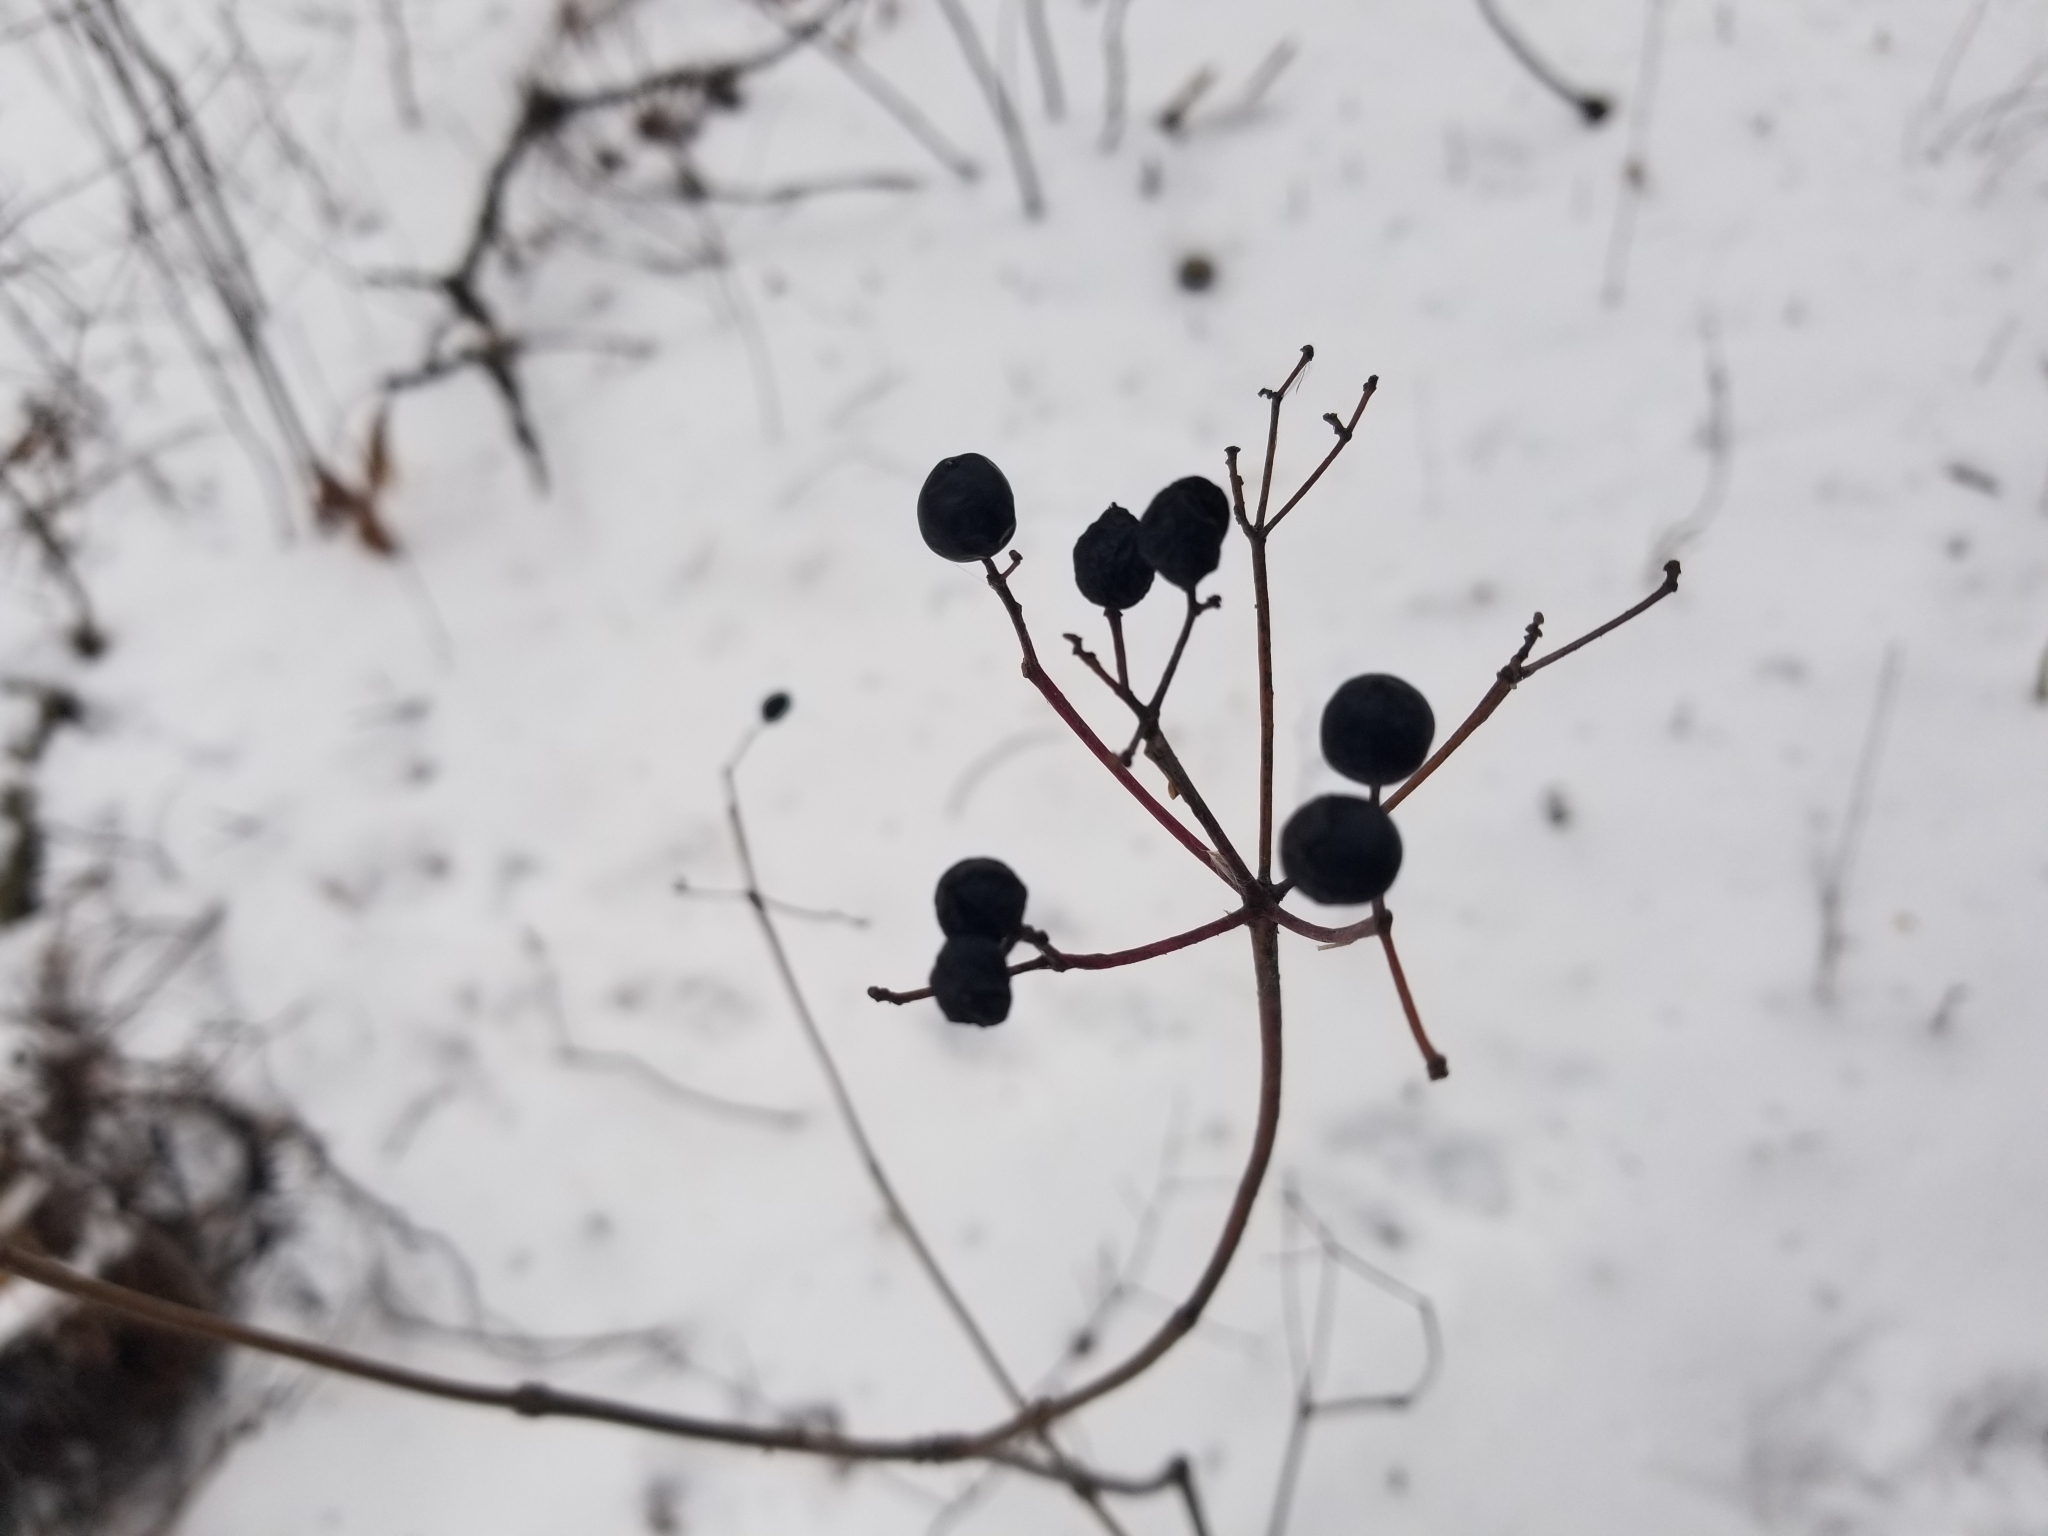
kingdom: Plantae
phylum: Tracheophyta
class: Magnoliopsida
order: Dipsacales
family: Viburnaceae
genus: Viburnum
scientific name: Viburnum acerifolium
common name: Dockmackie
